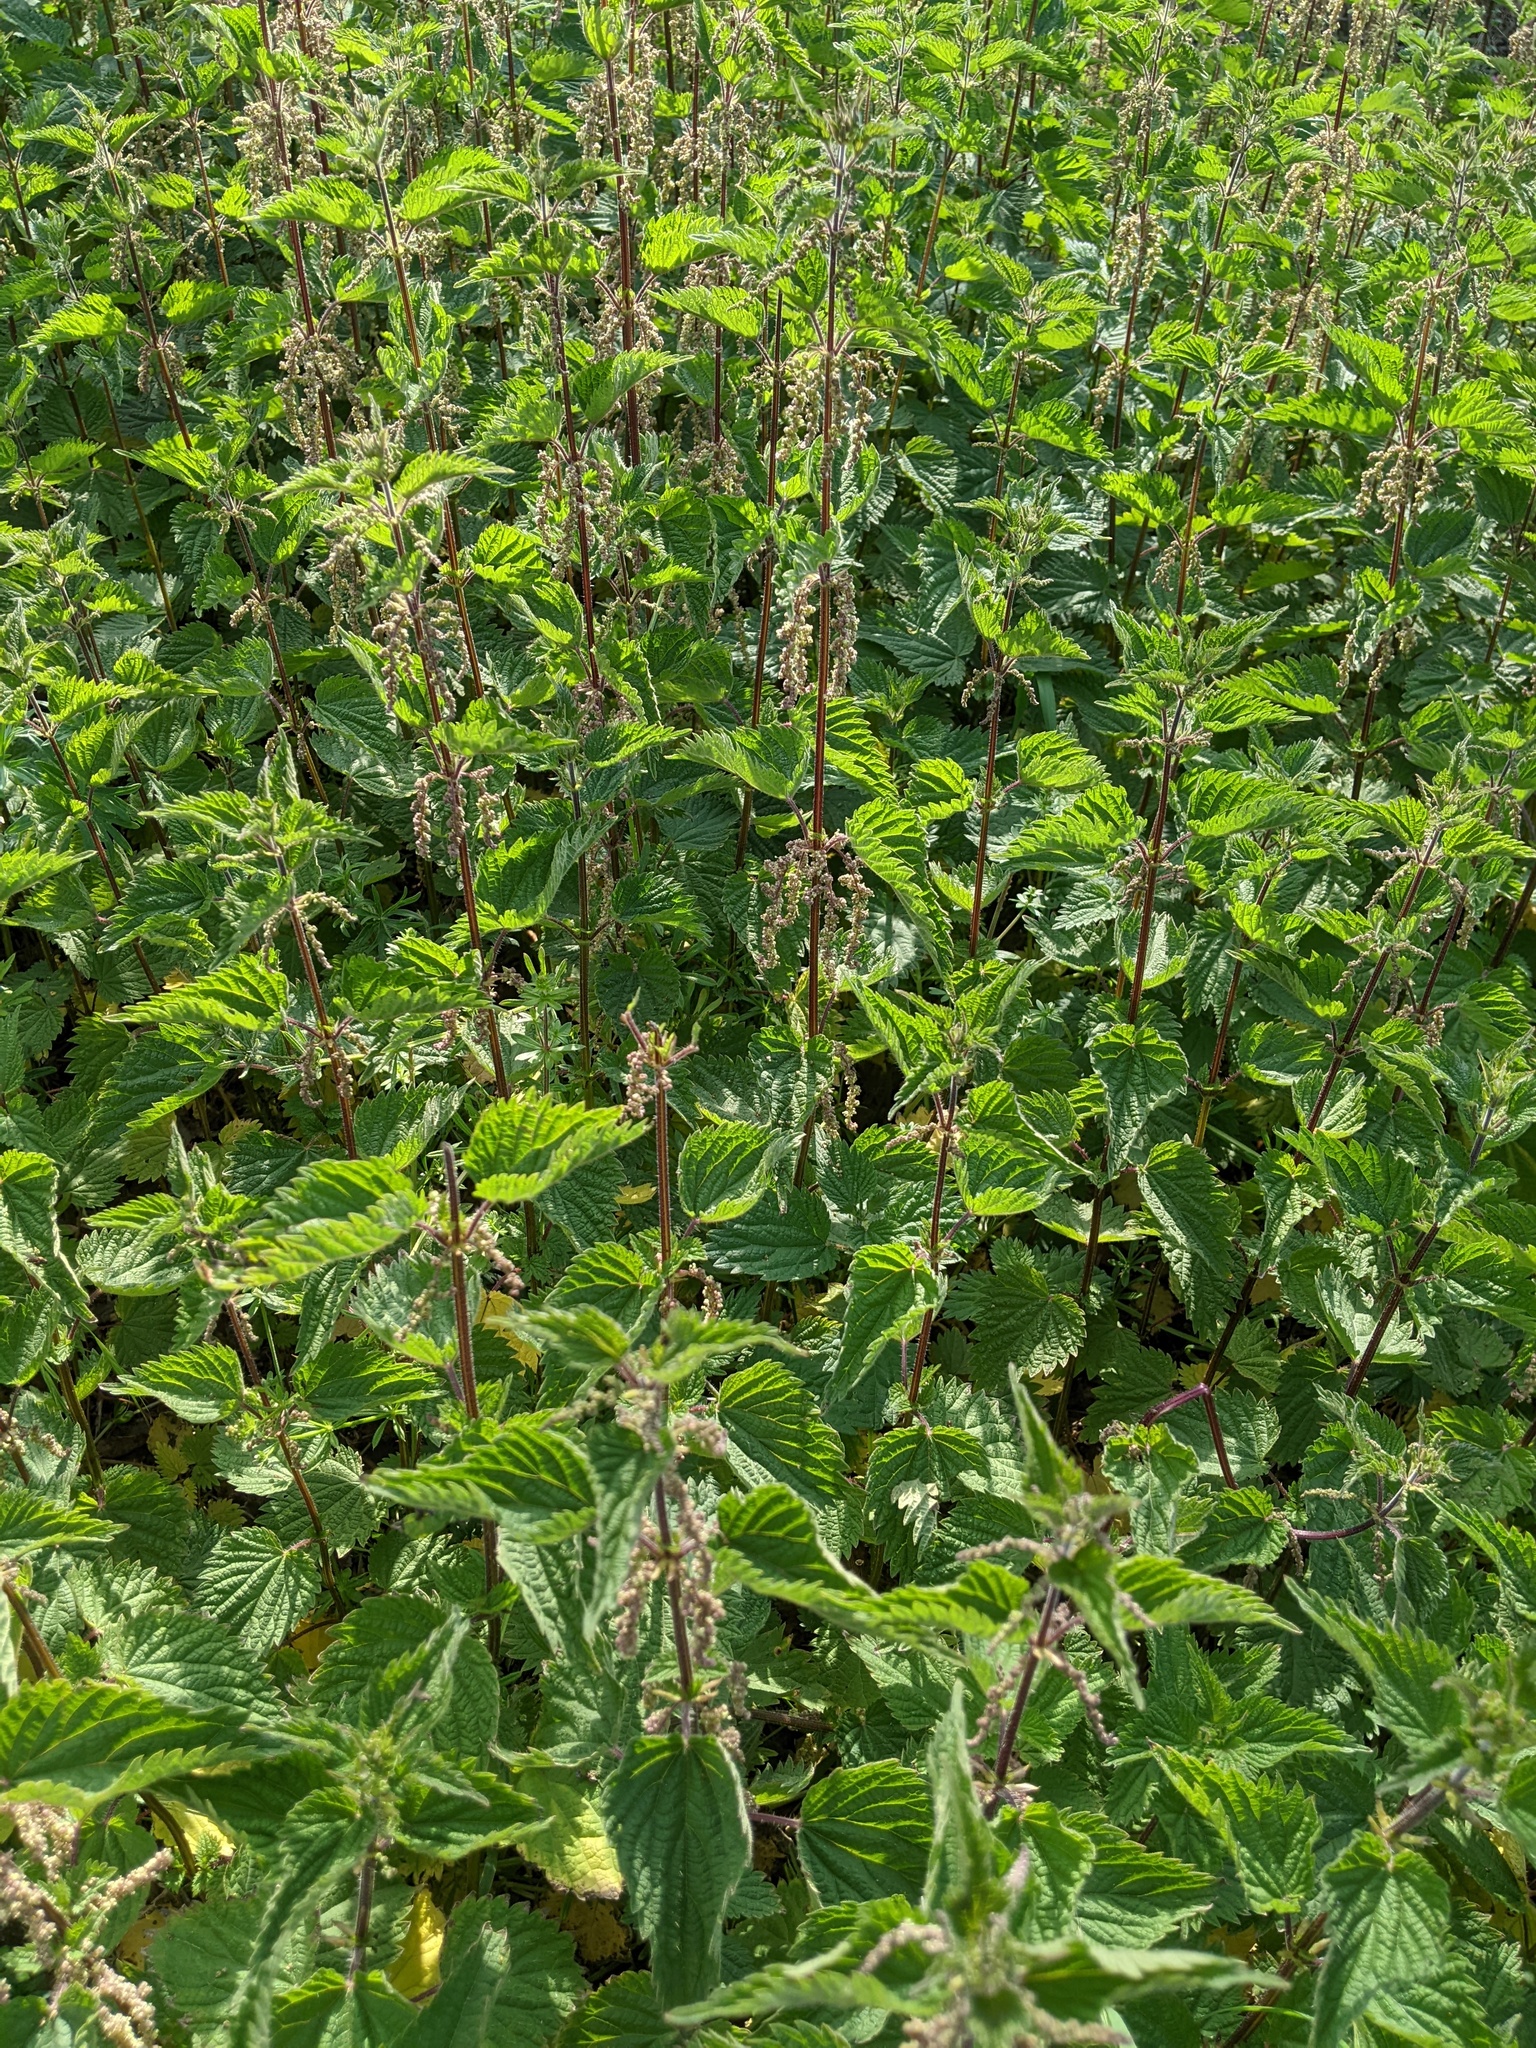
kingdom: Plantae
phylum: Tracheophyta
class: Magnoliopsida
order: Rosales
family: Urticaceae
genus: Urtica
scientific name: Urtica dioica
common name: Common nettle
